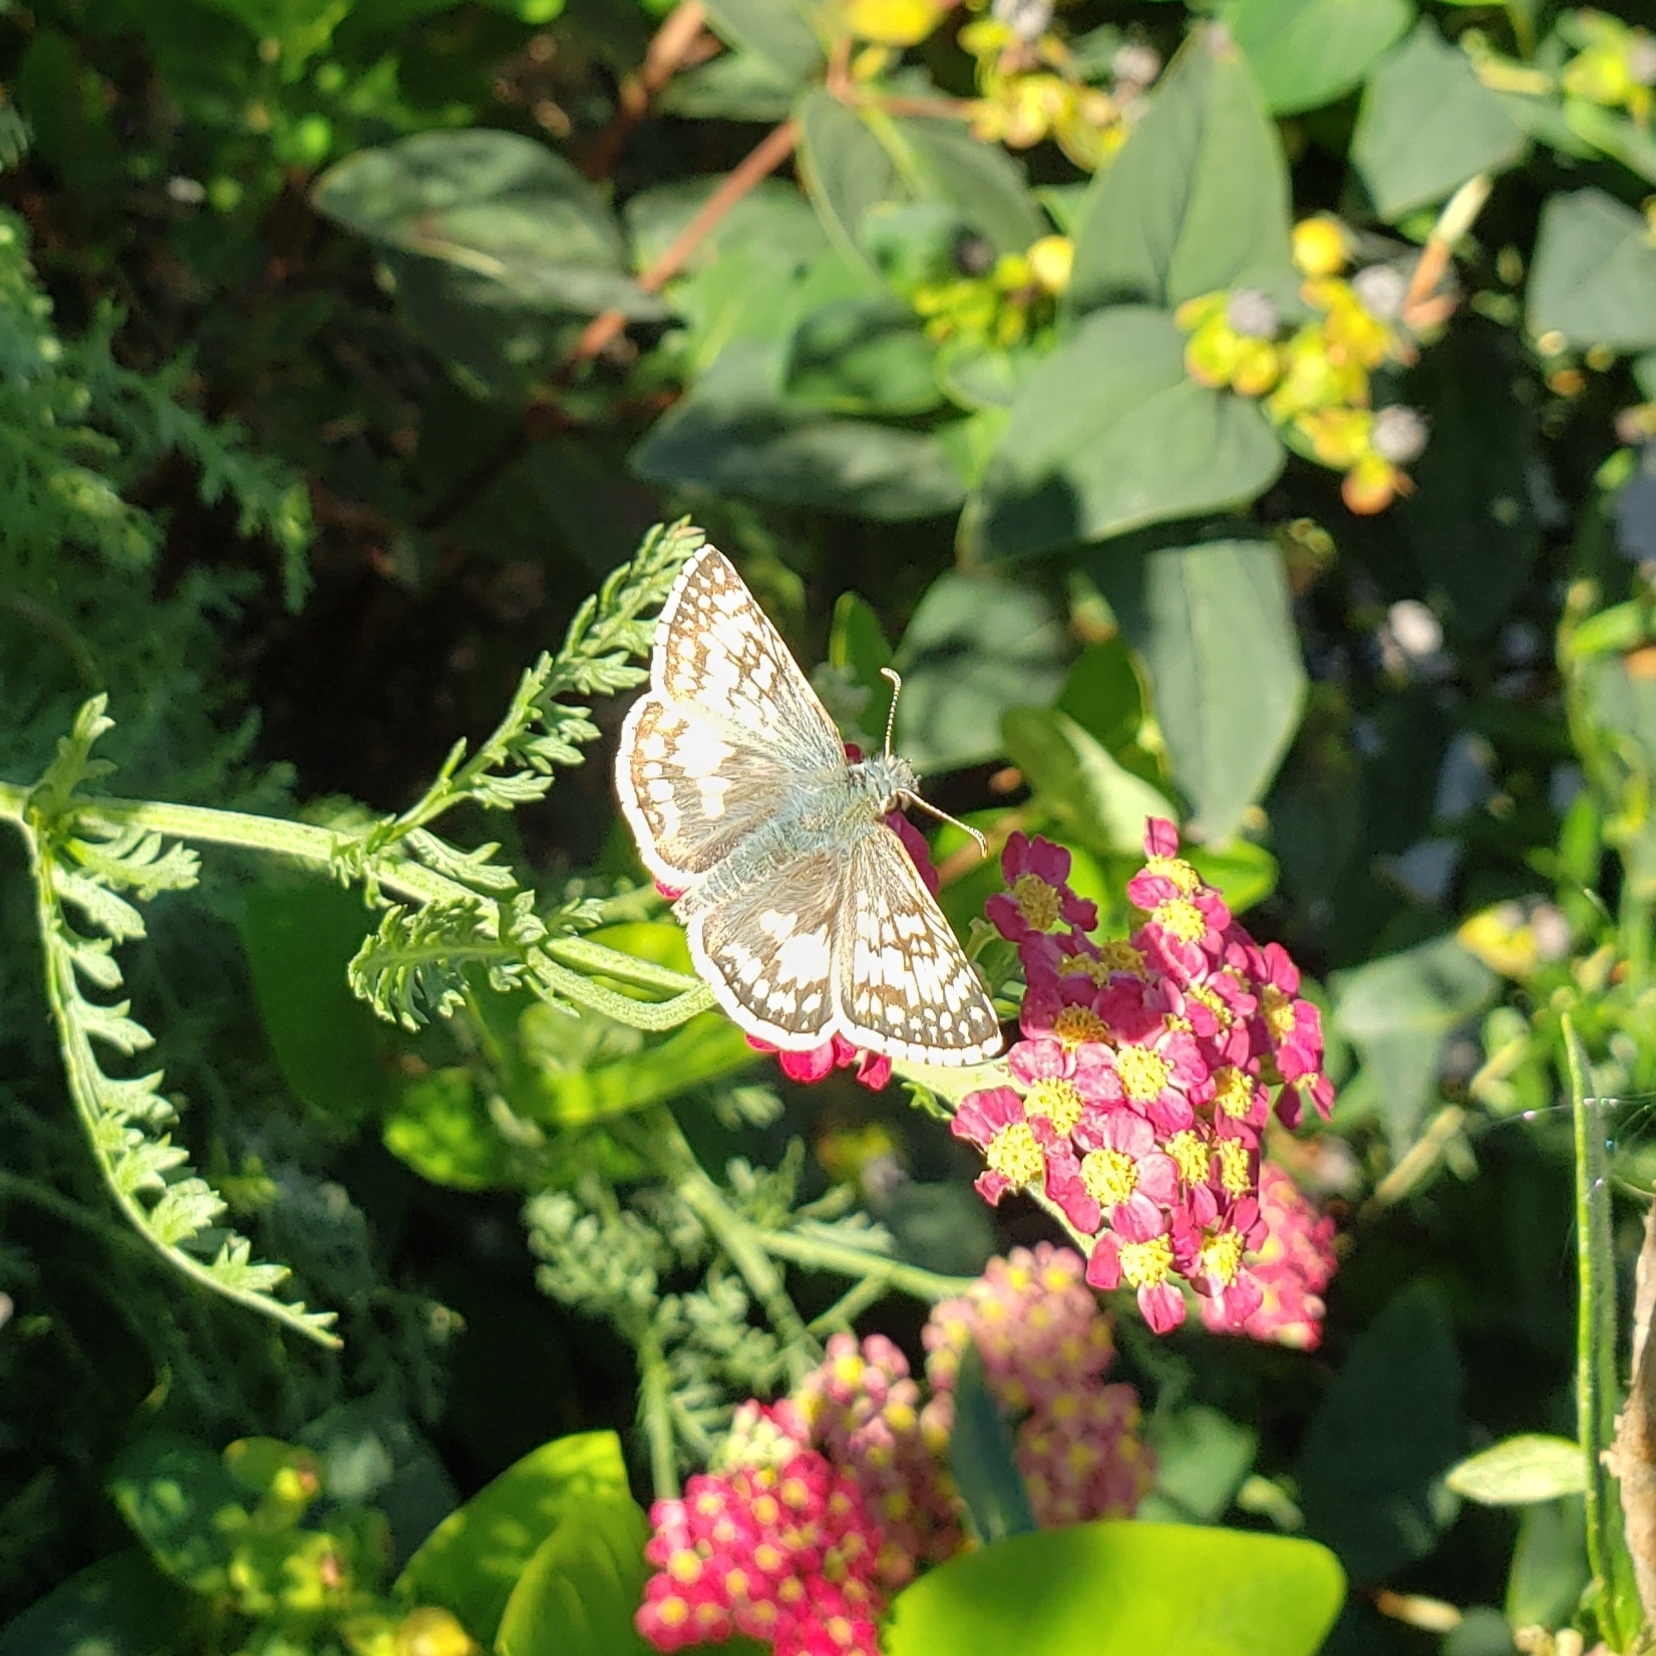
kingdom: Animalia
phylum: Arthropoda
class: Insecta
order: Lepidoptera
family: Hesperiidae
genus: Burnsius
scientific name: Burnsius communis
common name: Common checkered-skipper
